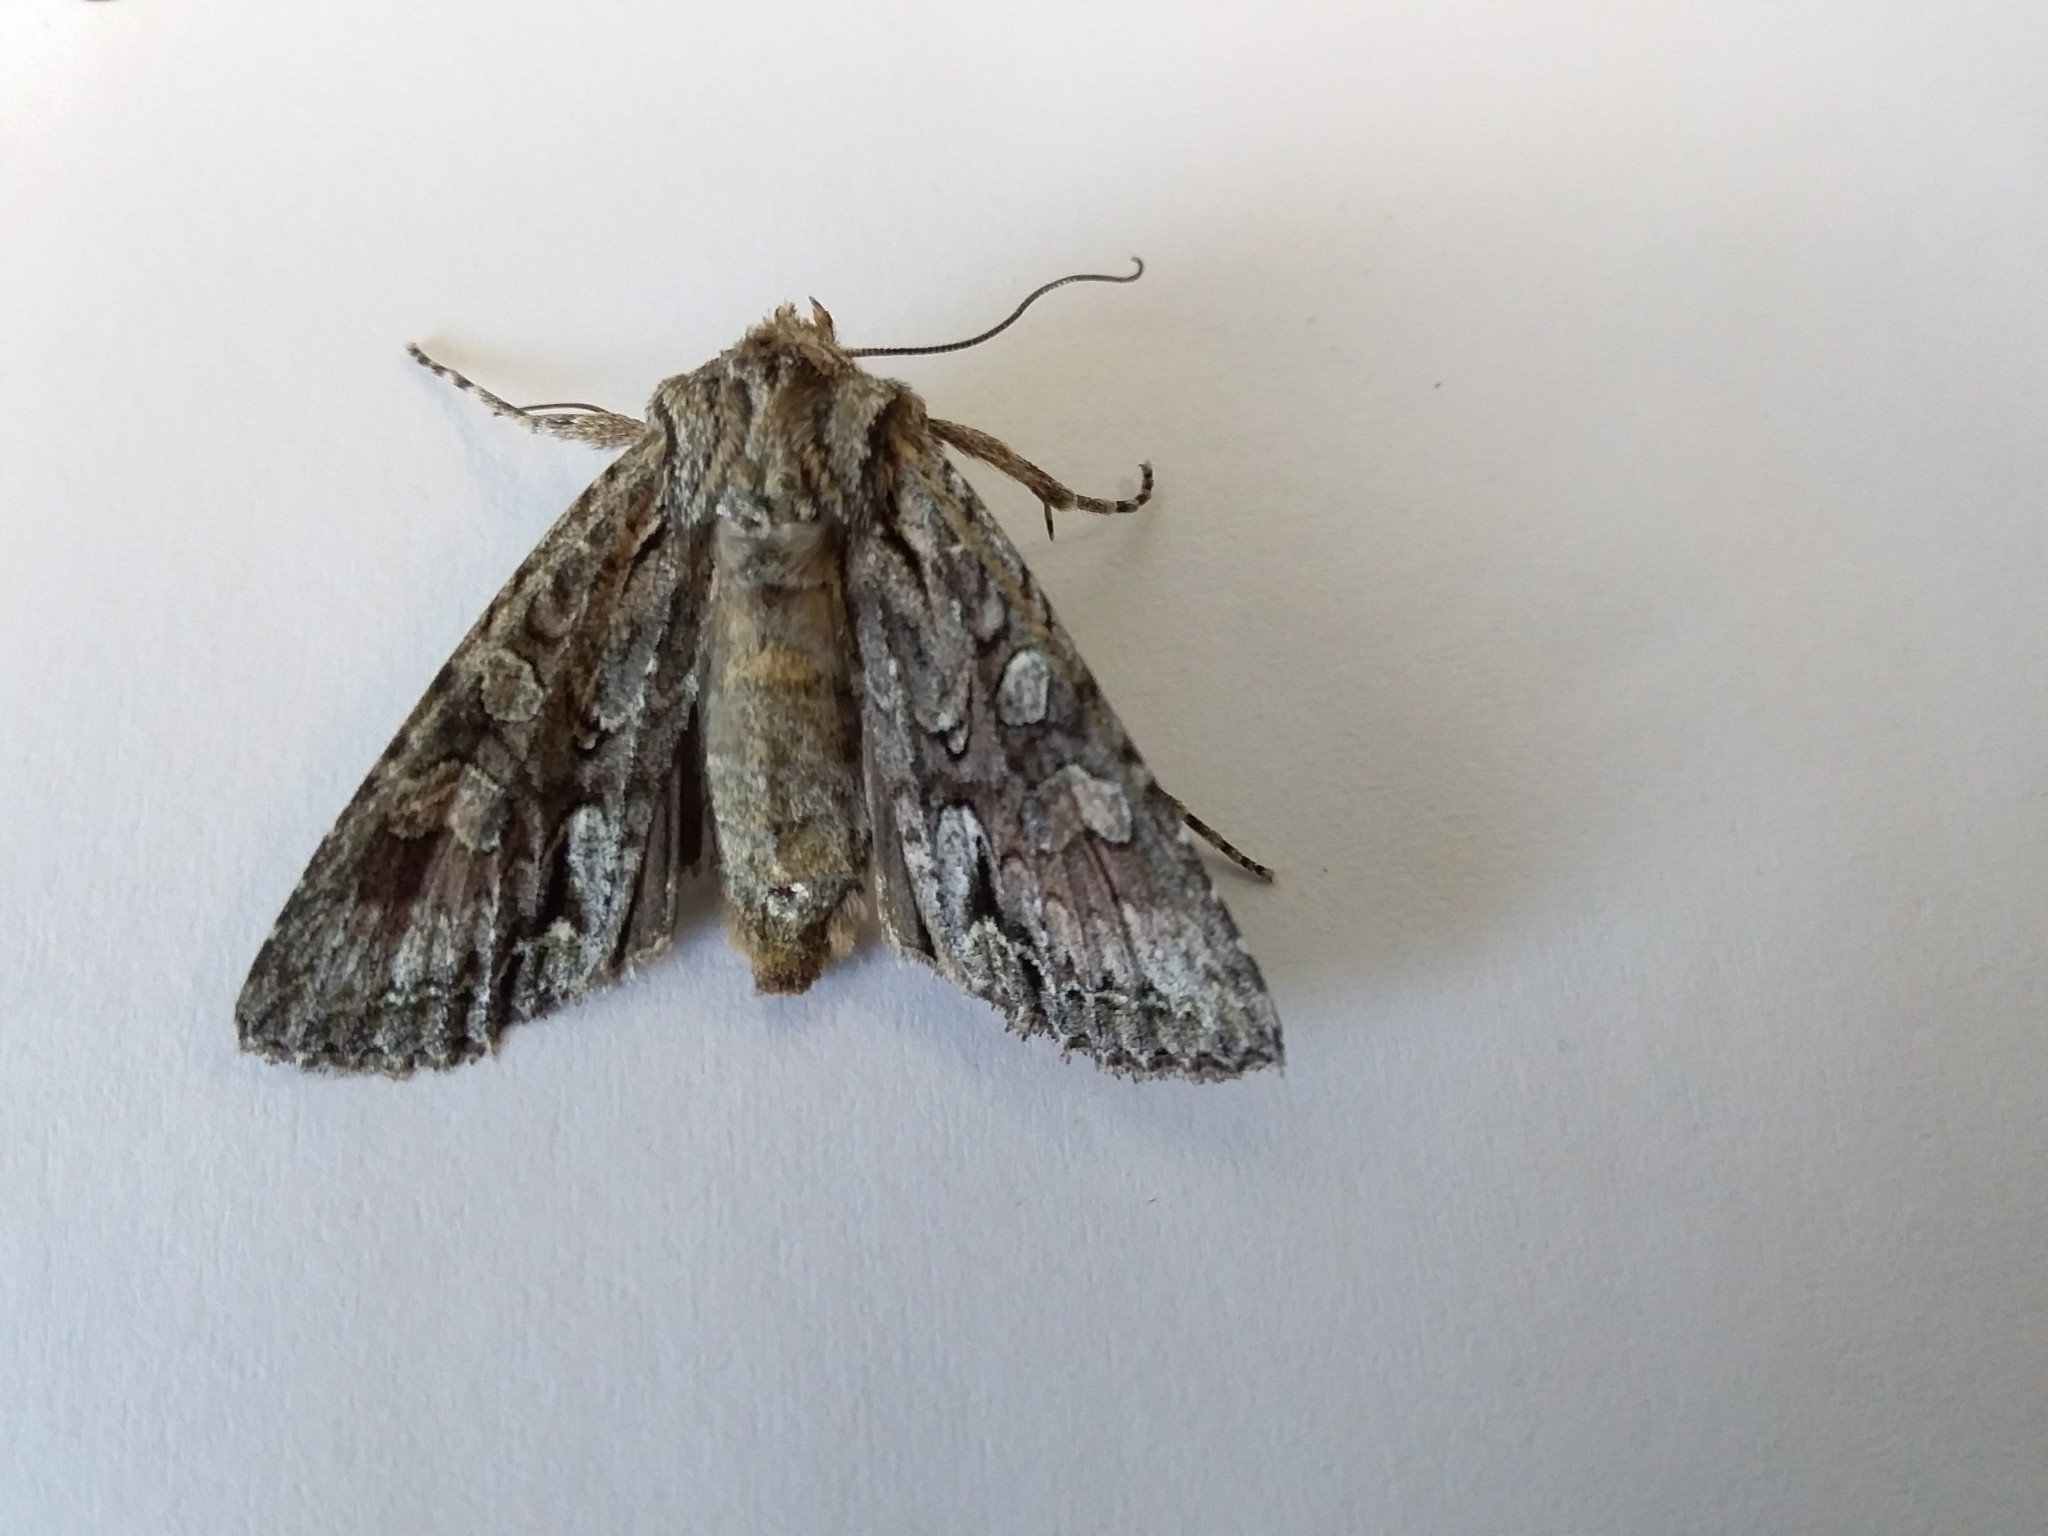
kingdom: Animalia
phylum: Arthropoda
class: Insecta
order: Lepidoptera
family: Noctuidae
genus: Ichneutica
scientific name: Ichneutica mutans
